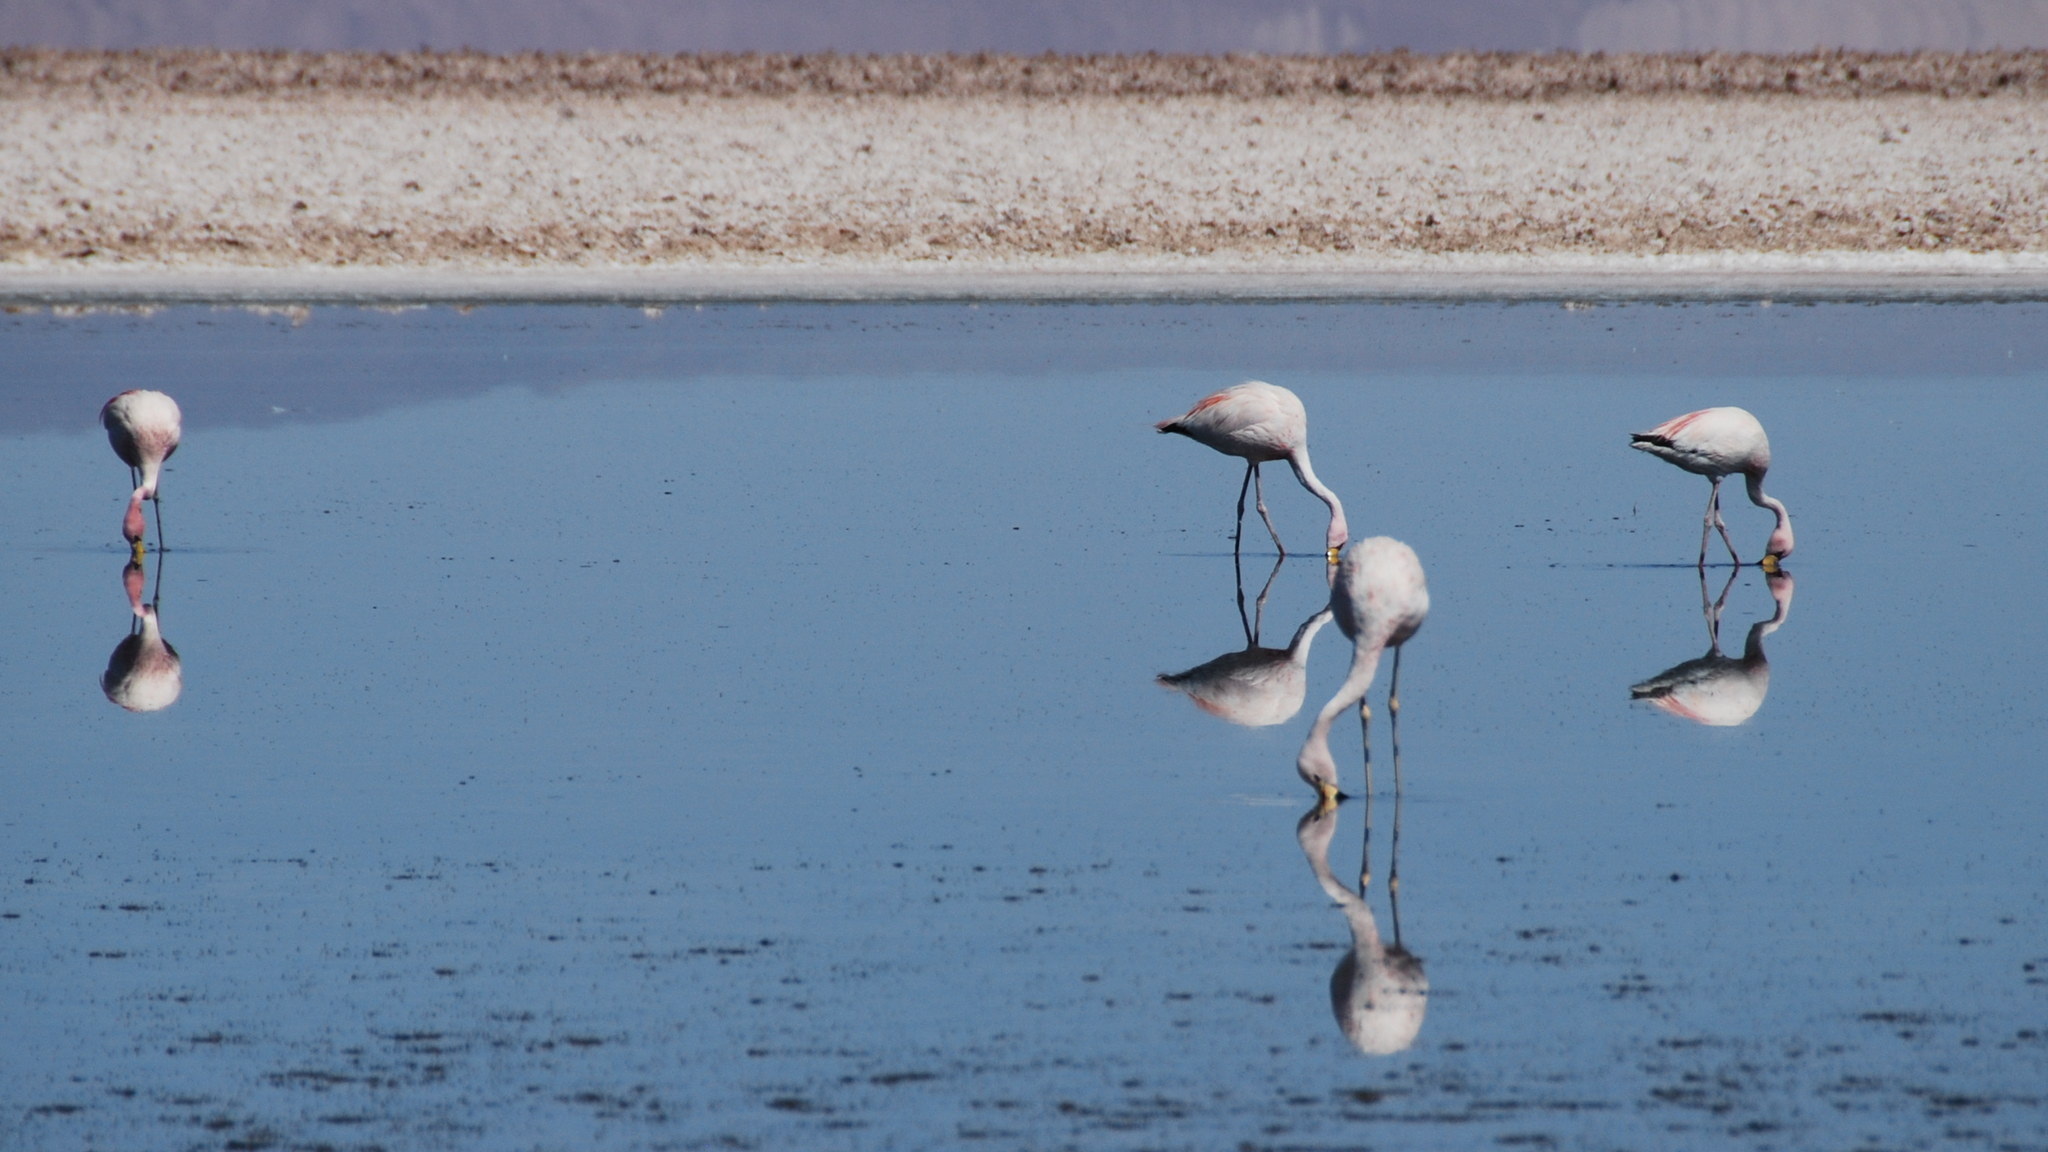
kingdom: Animalia
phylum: Chordata
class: Aves
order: Phoenicopteriformes
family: Phoenicopteridae
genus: Phoenicoparrus
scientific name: Phoenicoparrus andinus
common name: Andean flamingo
